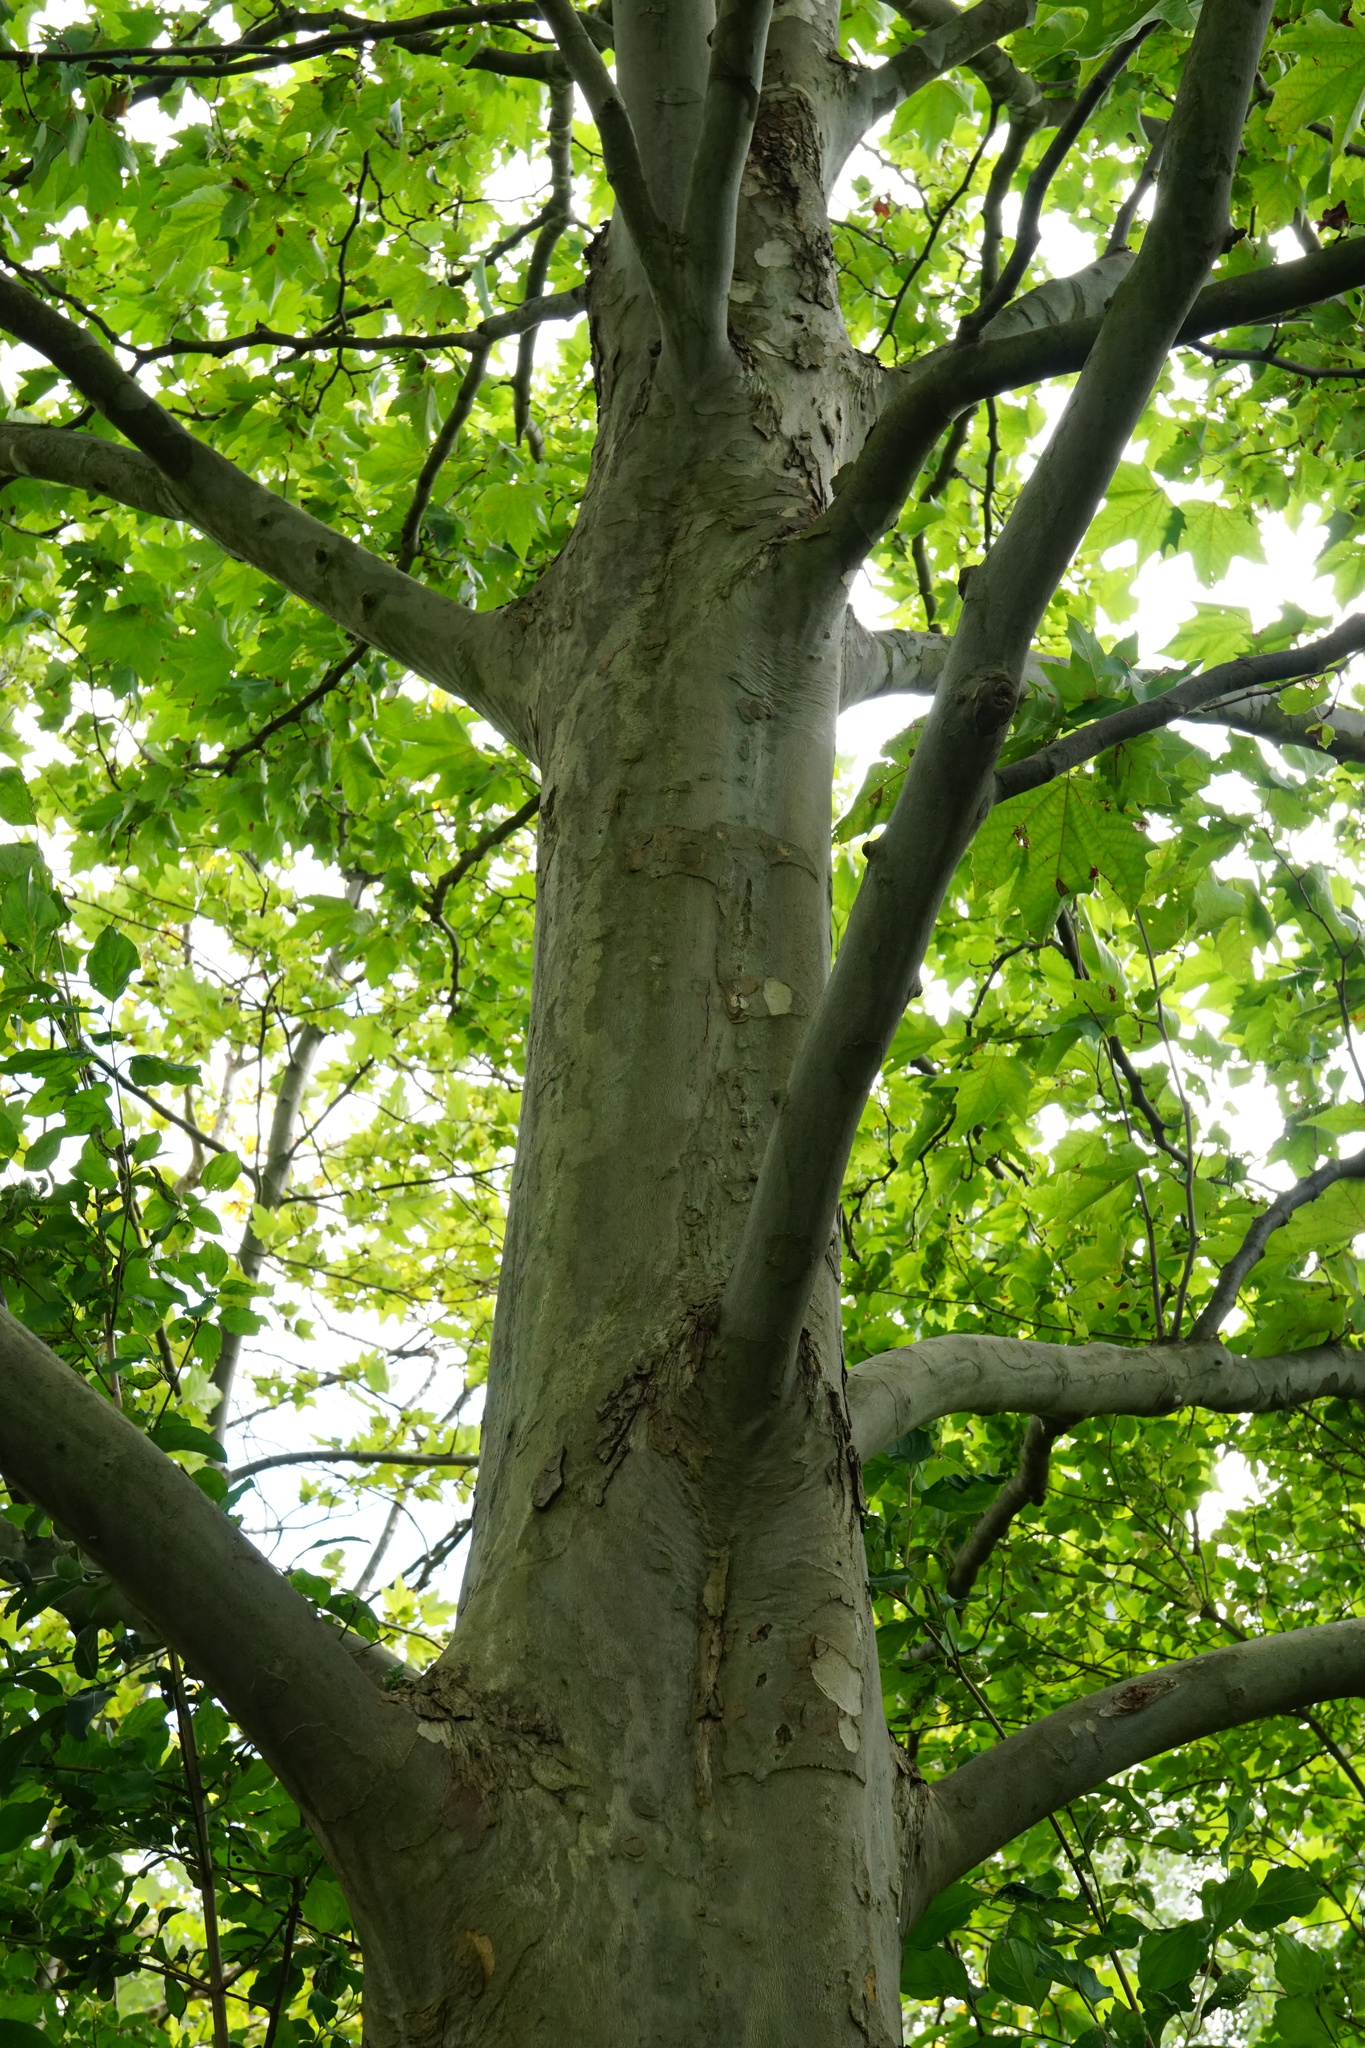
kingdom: Plantae
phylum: Tracheophyta
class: Magnoliopsida
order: Proteales
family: Platanaceae
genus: Platanus
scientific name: Platanus hispanica
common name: London plane
